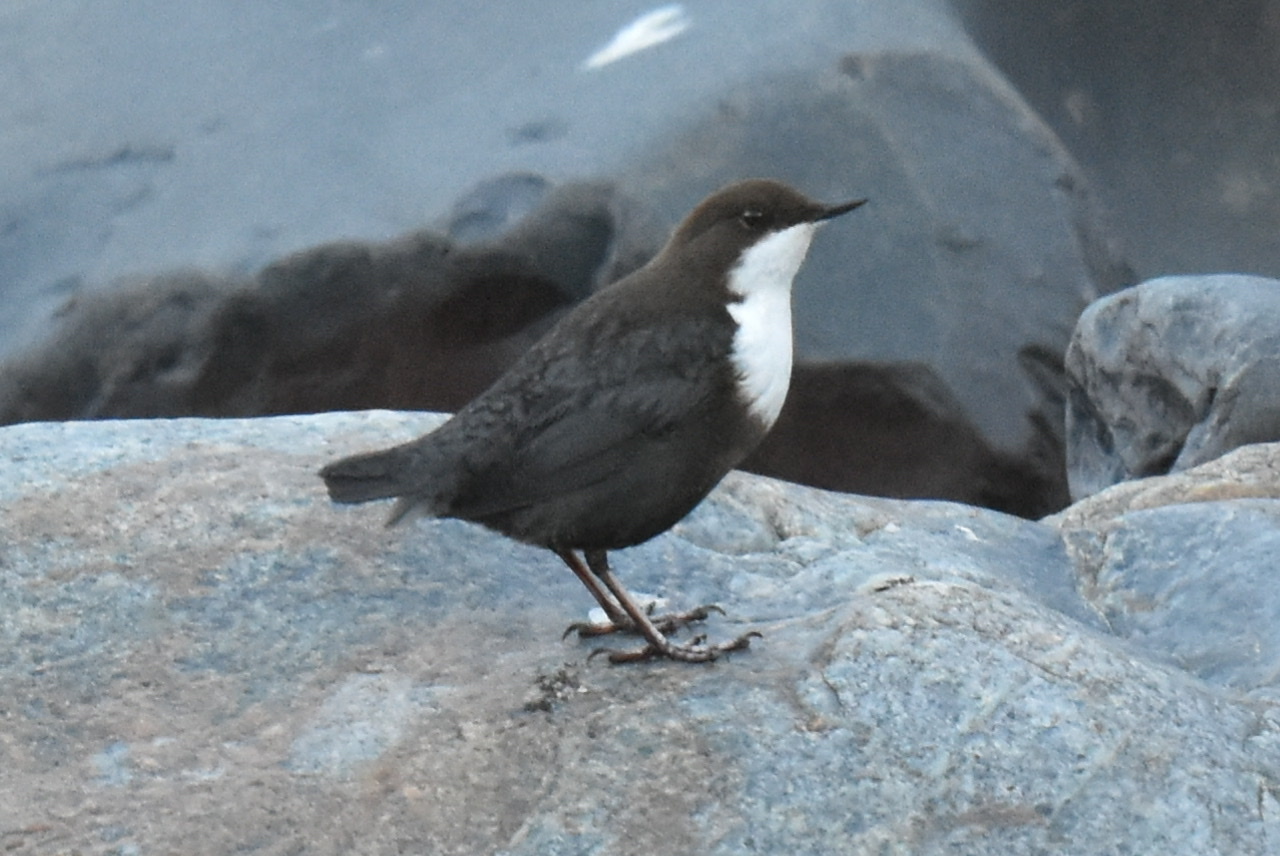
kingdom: Animalia
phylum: Chordata
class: Aves
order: Passeriformes
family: Cinclidae
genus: Cinclus
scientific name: Cinclus cinclus
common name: White-throated dipper
